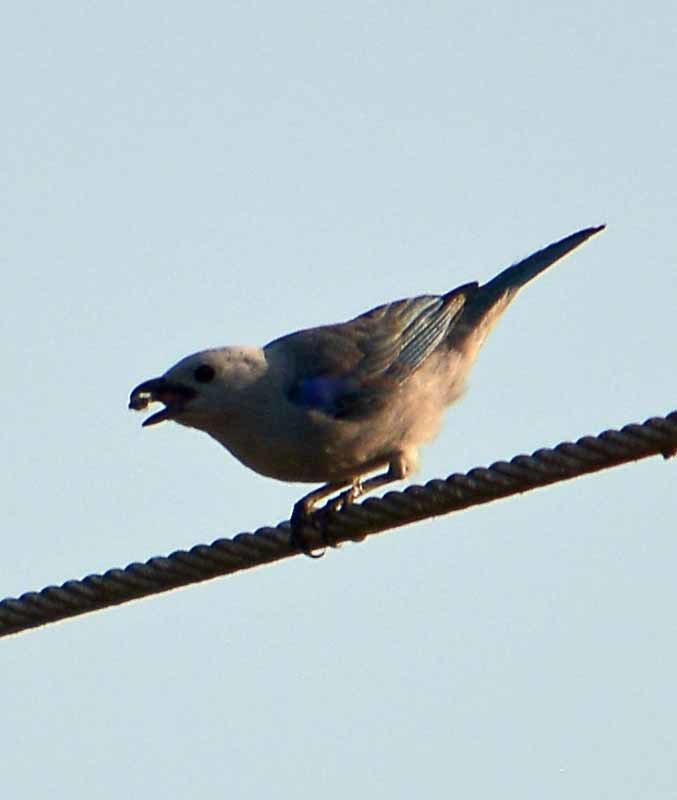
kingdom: Animalia
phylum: Chordata
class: Aves
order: Passeriformes
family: Thraupidae
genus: Thraupis
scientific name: Thraupis episcopus
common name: Blue-grey tanager
